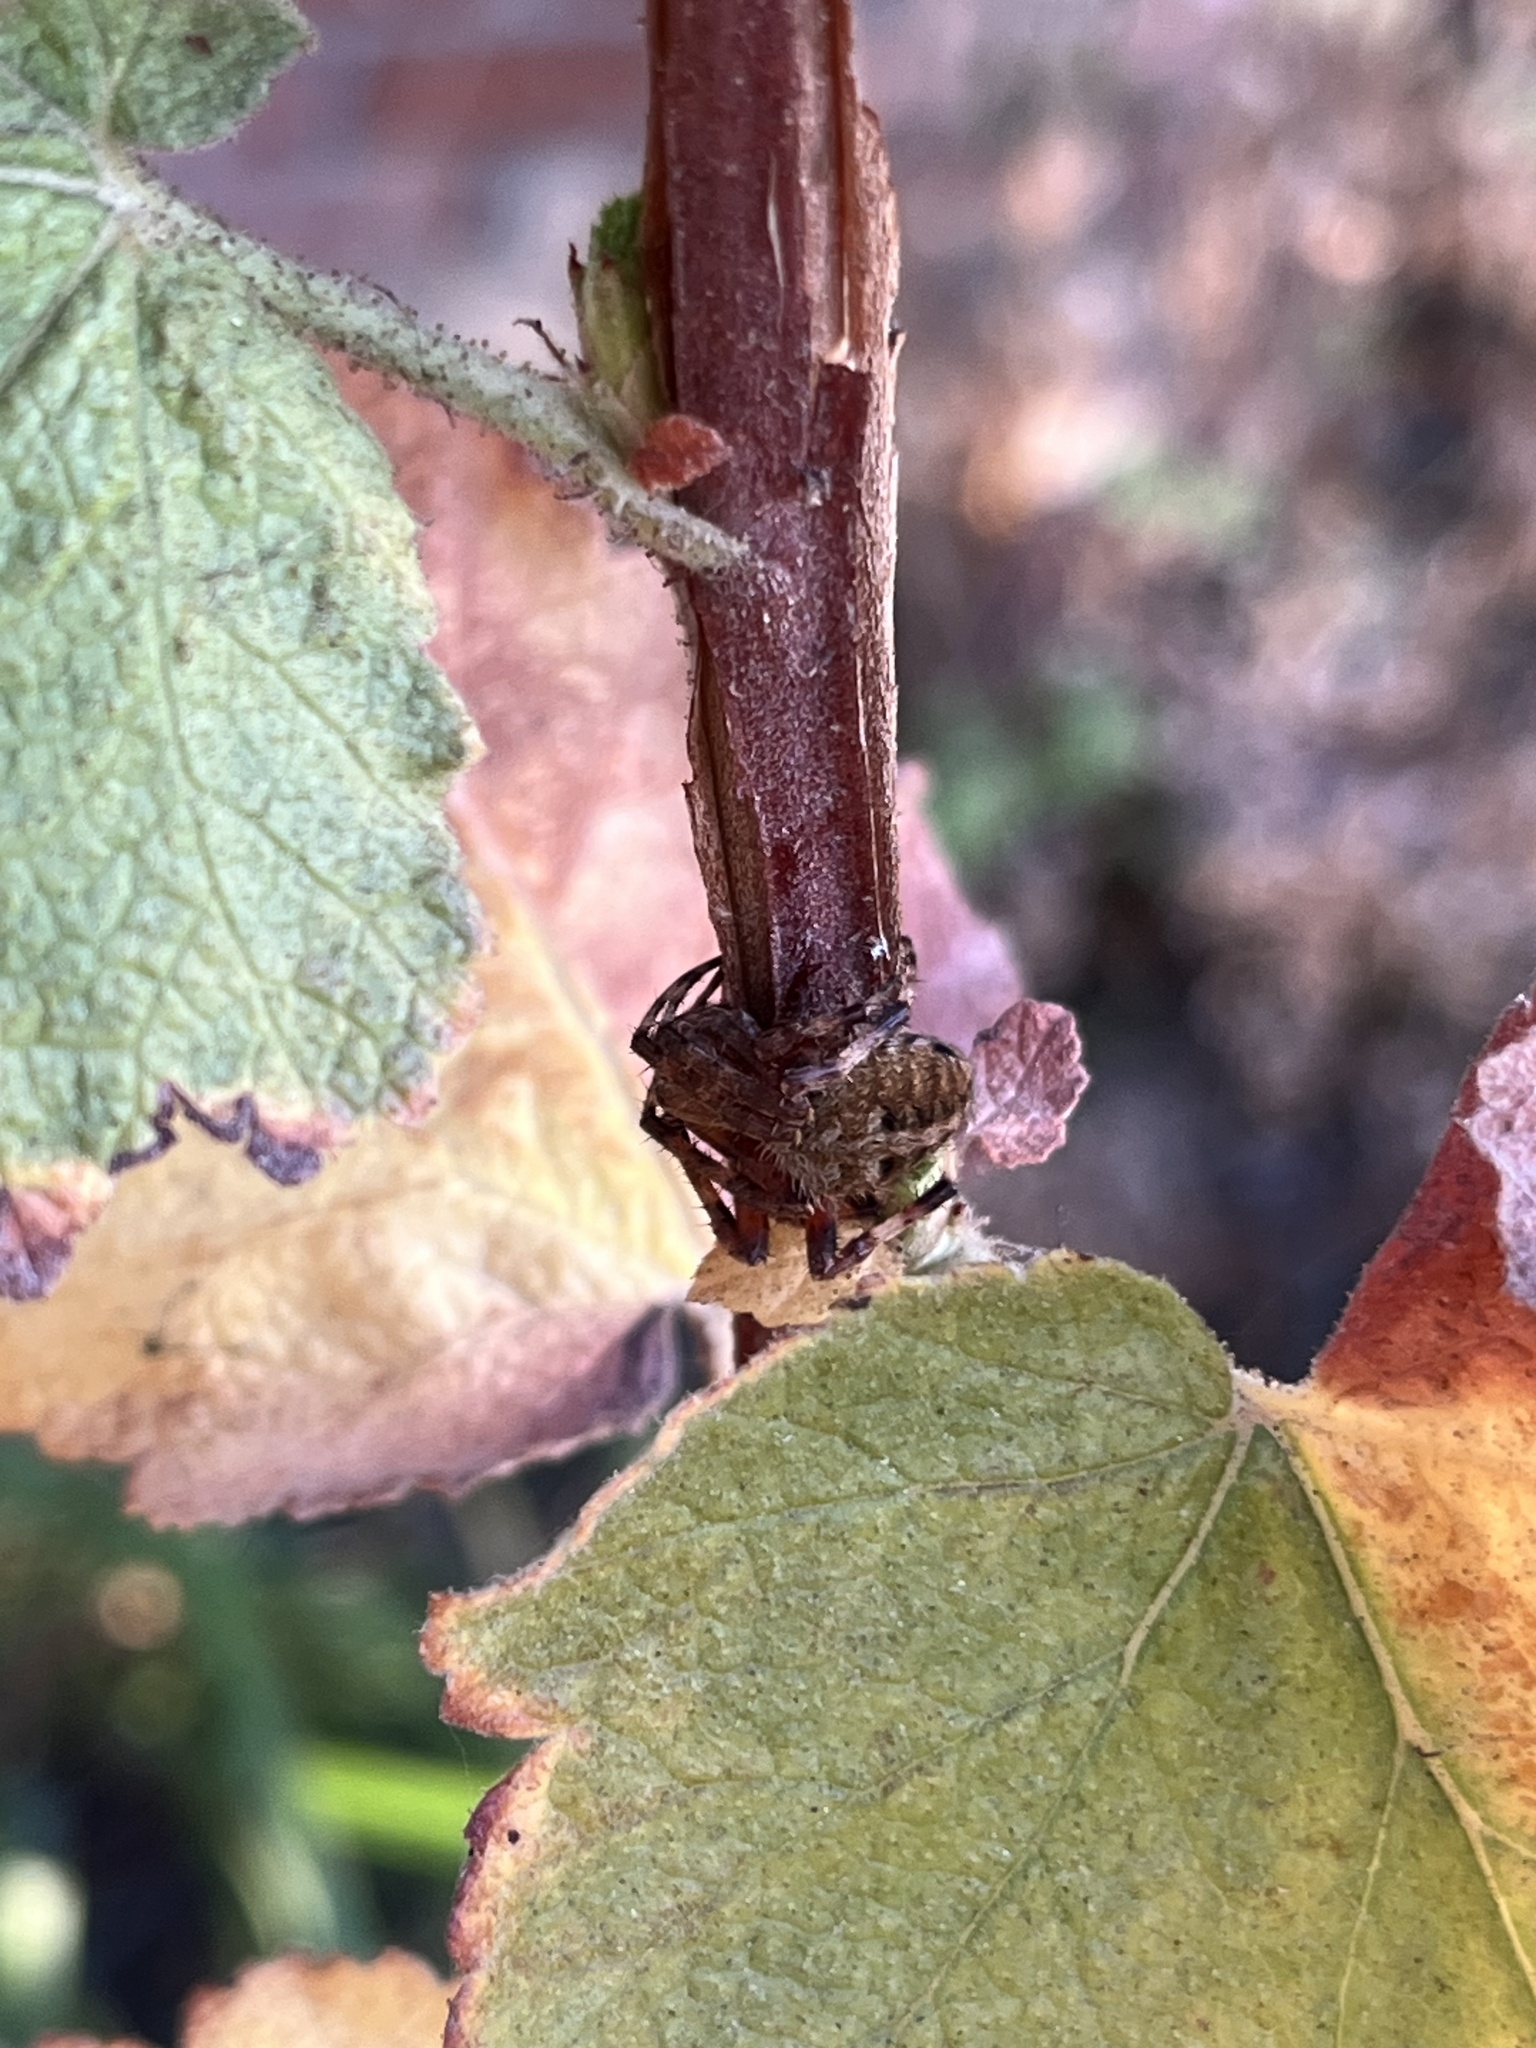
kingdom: Animalia
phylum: Arthropoda
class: Arachnida
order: Araneae
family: Araneidae
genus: Neoscona
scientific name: Neoscona crucifera
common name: Spotted orbweaver
